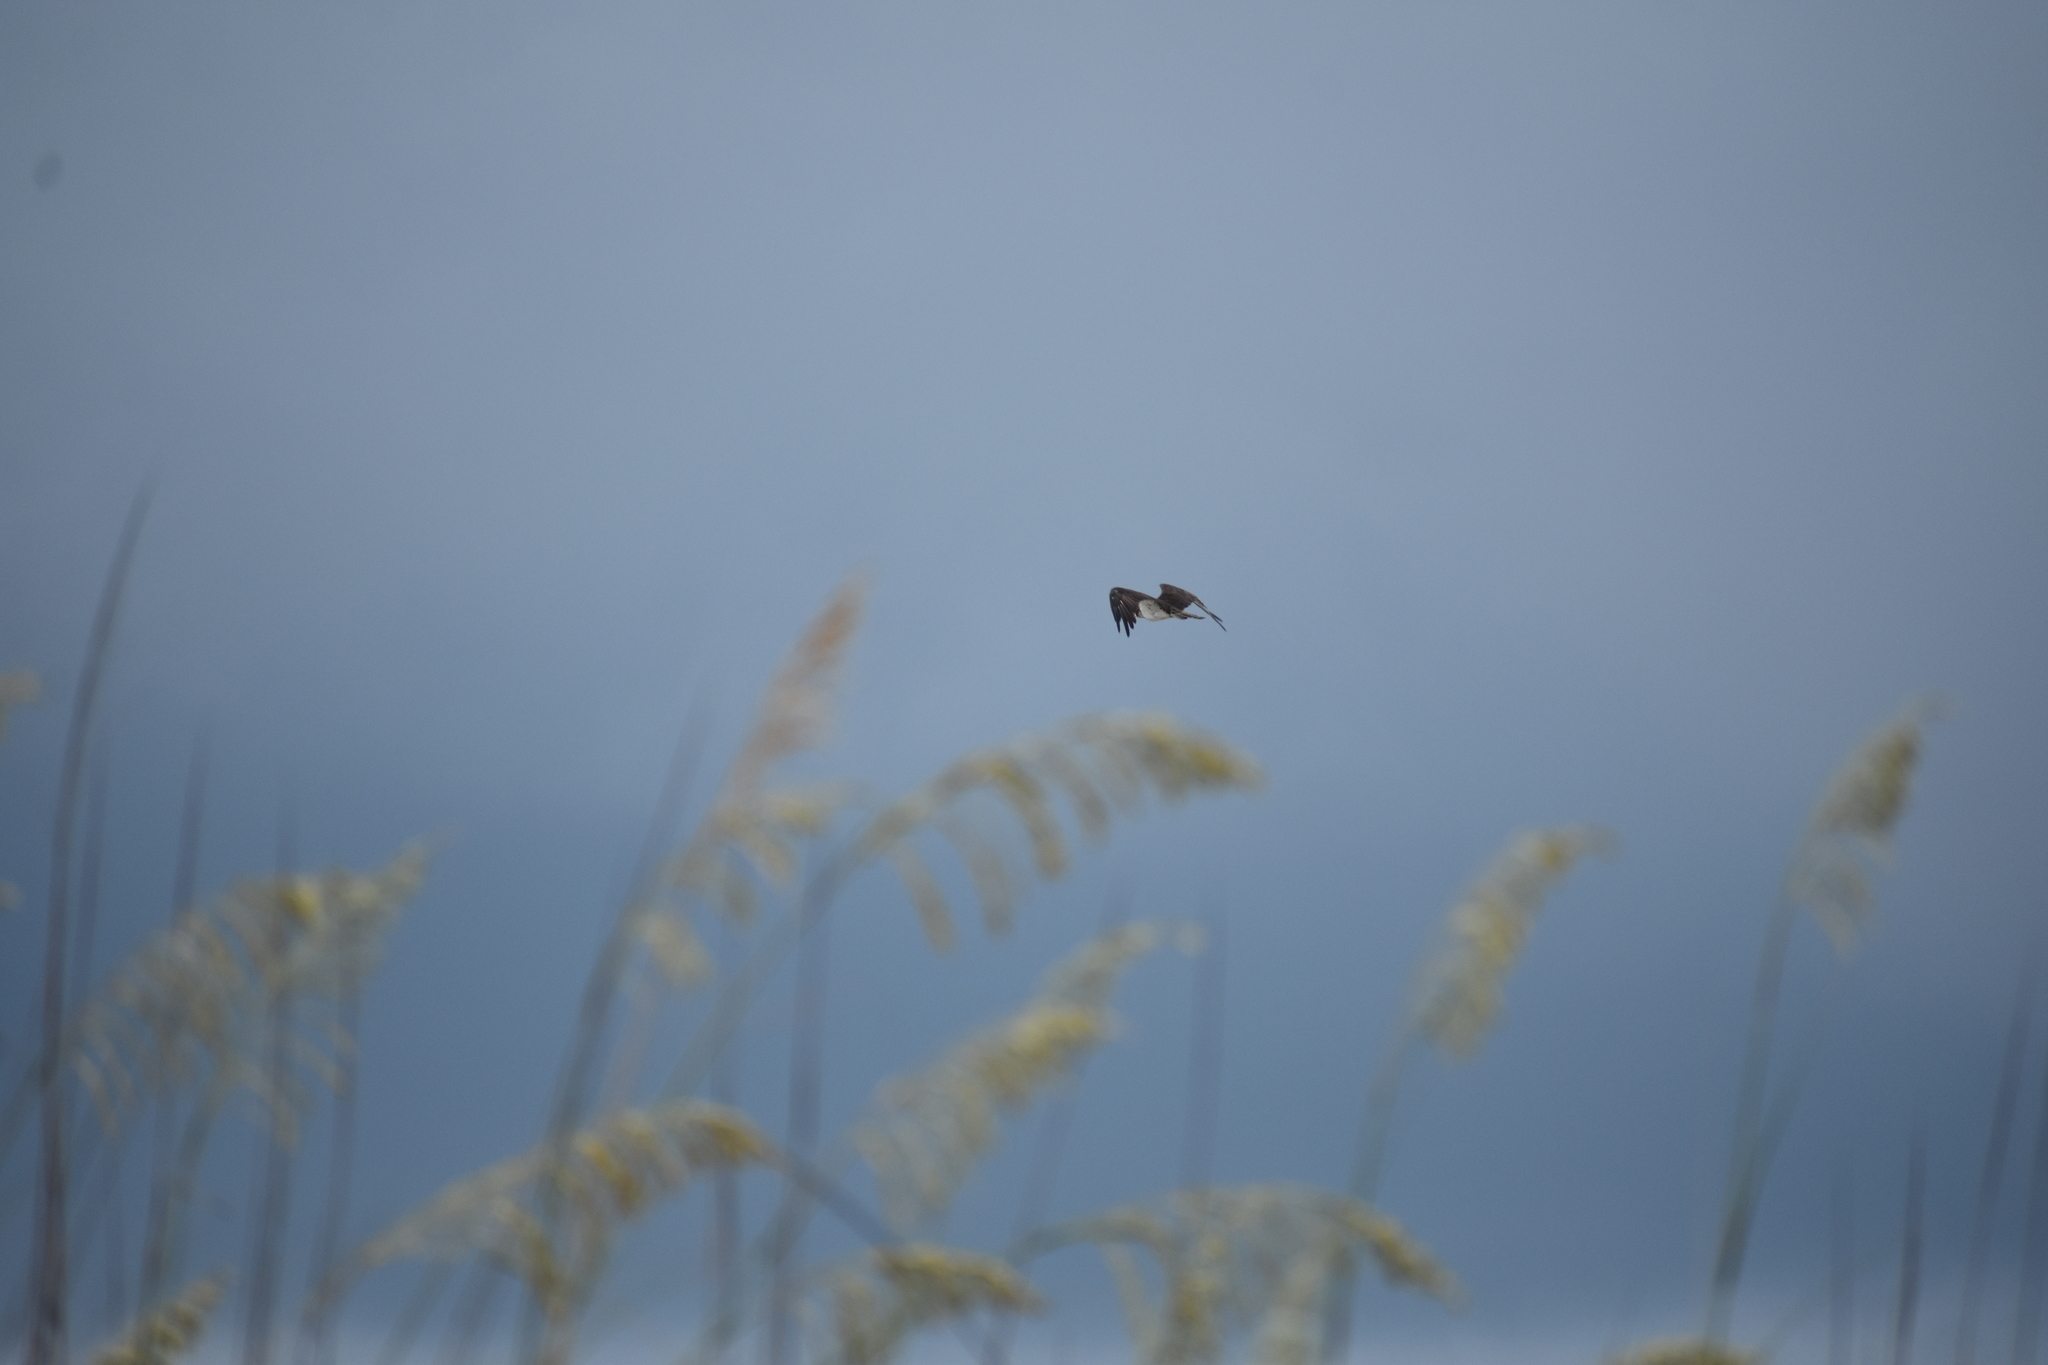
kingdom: Animalia
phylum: Chordata
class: Aves
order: Accipitriformes
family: Pandionidae
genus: Pandion
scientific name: Pandion haliaetus
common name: Osprey
